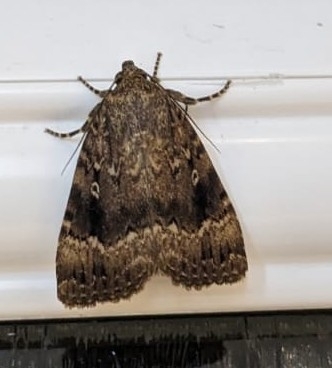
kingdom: Animalia
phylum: Arthropoda
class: Insecta
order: Lepidoptera
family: Noctuidae
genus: Amphipyra
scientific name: Amphipyra pyramidea
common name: Copper underwing
